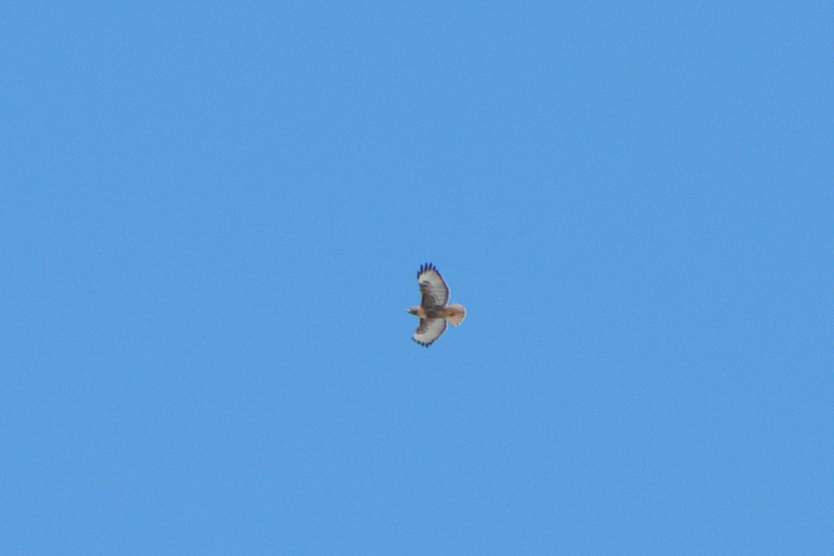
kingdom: Animalia
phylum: Chordata
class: Aves
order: Accipitriformes
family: Accipitridae
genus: Buteo
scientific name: Buteo jamaicensis
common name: Red-tailed hawk
